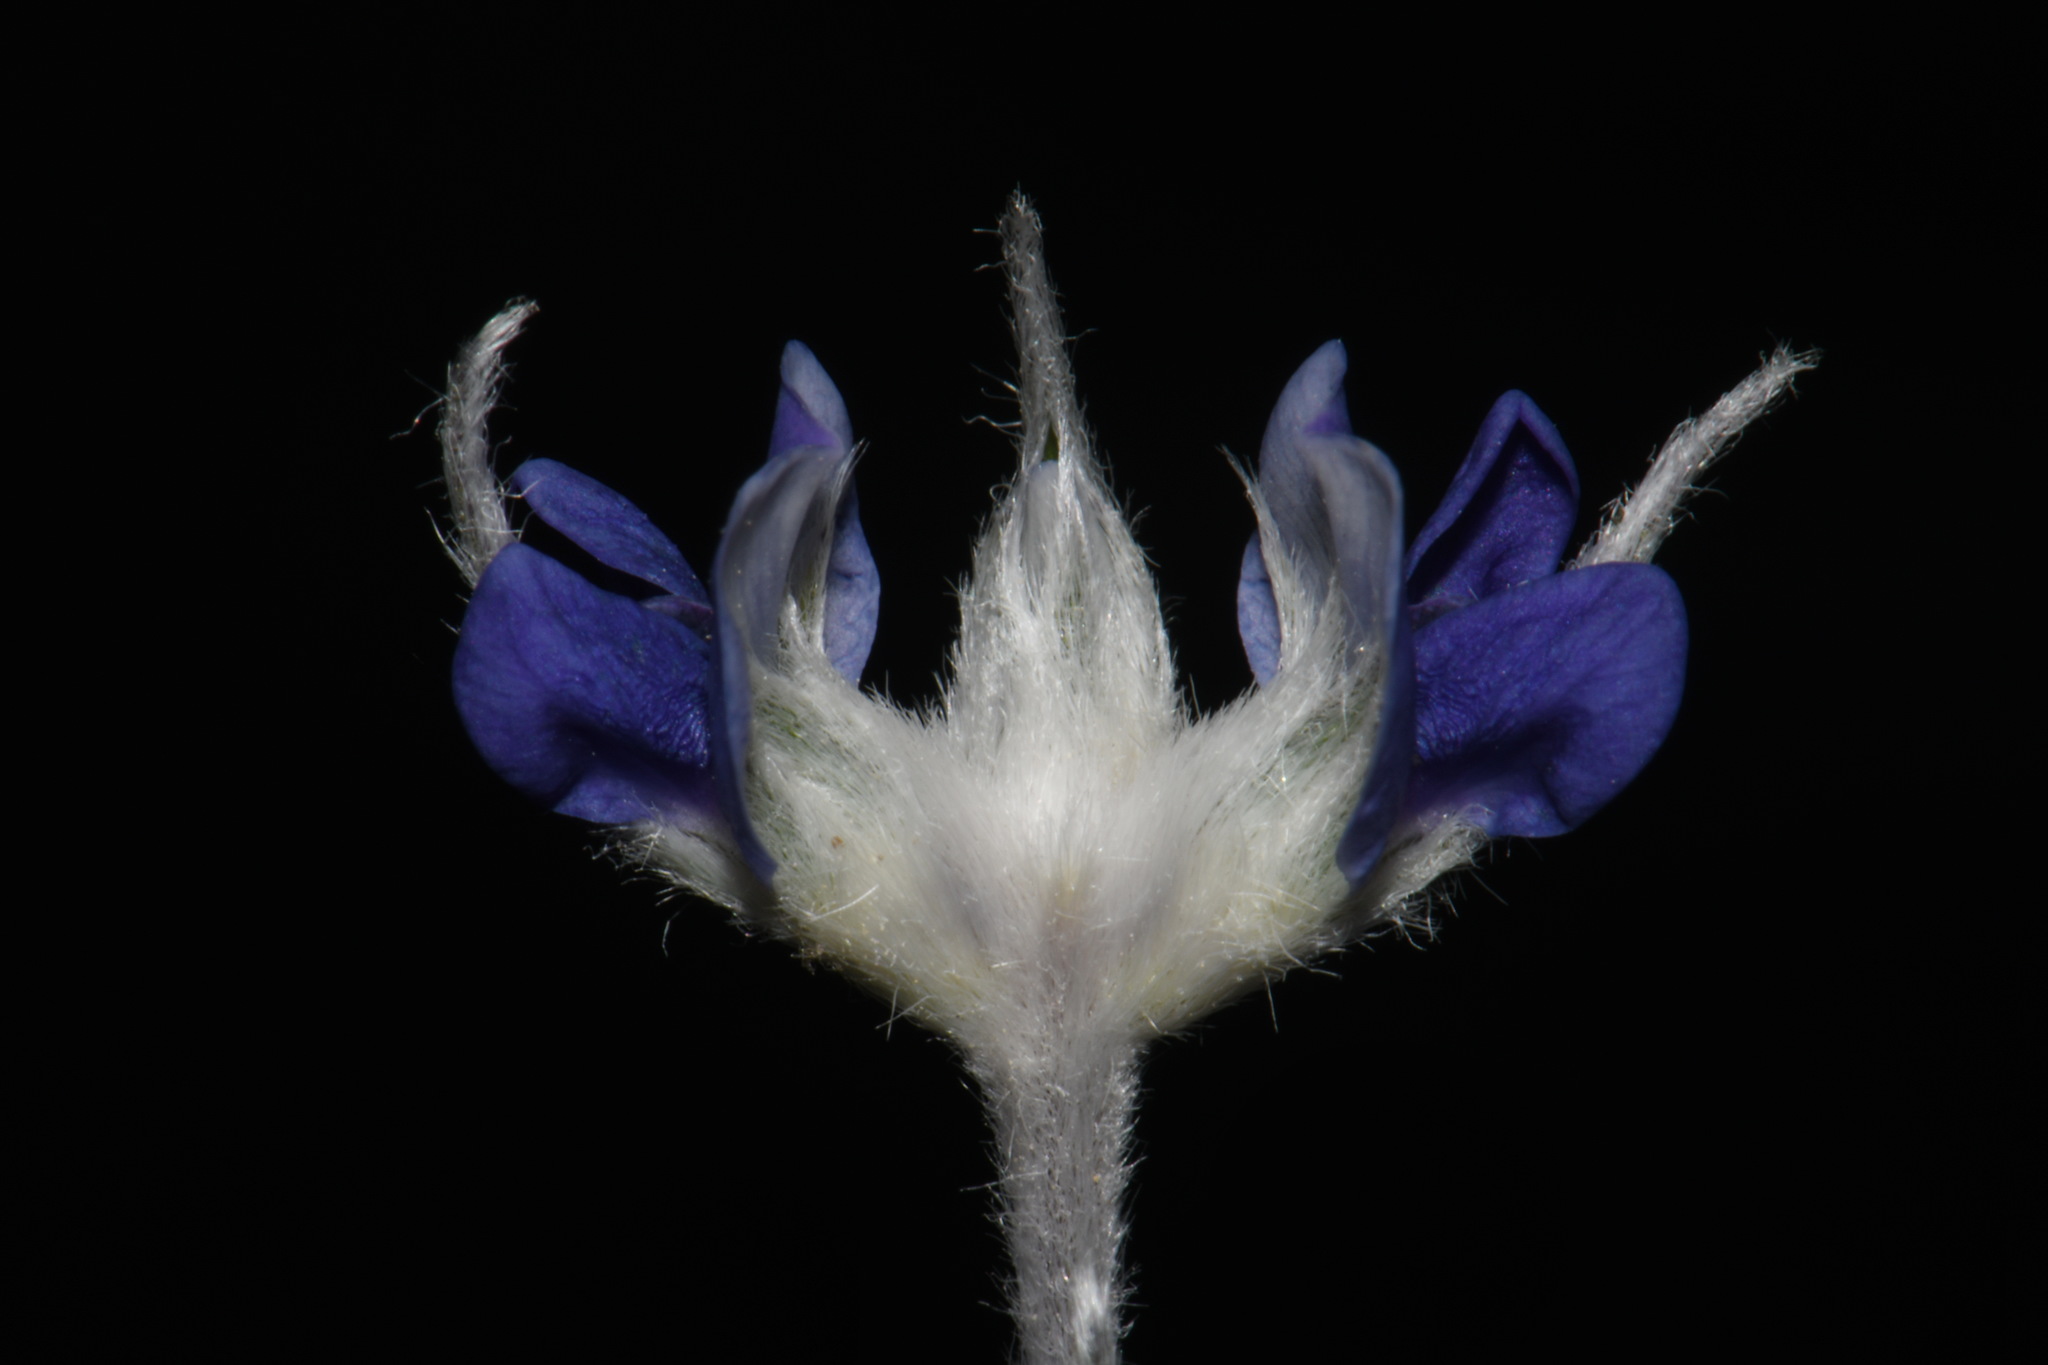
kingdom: Plantae
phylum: Tracheophyta
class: Magnoliopsida
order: Fabales
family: Fabaceae
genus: Pediomelum
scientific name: Pediomelum argophyllum
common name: Silver-leaved indian breadroot
